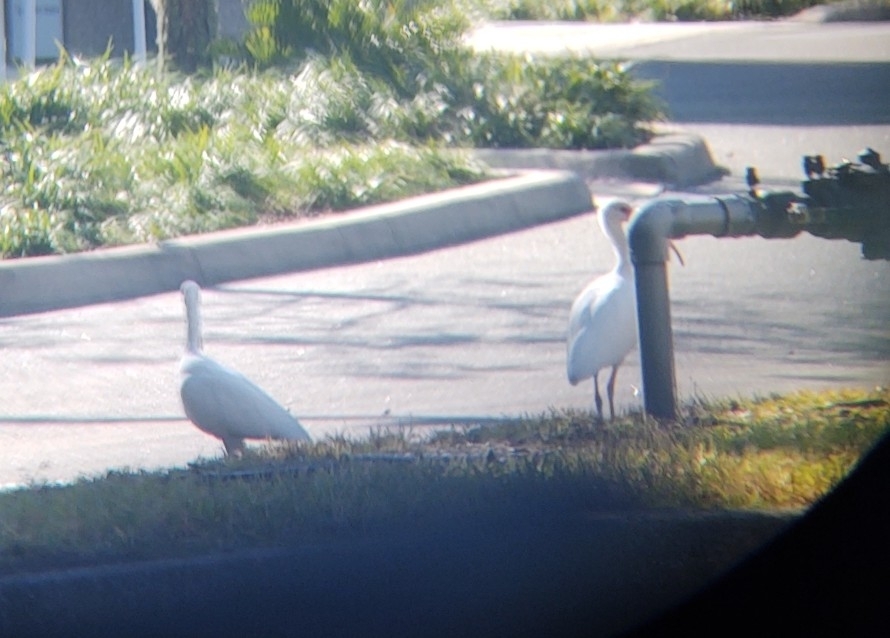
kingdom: Animalia
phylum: Chordata
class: Aves
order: Pelecaniformes
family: Threskiornithidae
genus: Eudocimus
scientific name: Eudocimus albus
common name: White ibis
